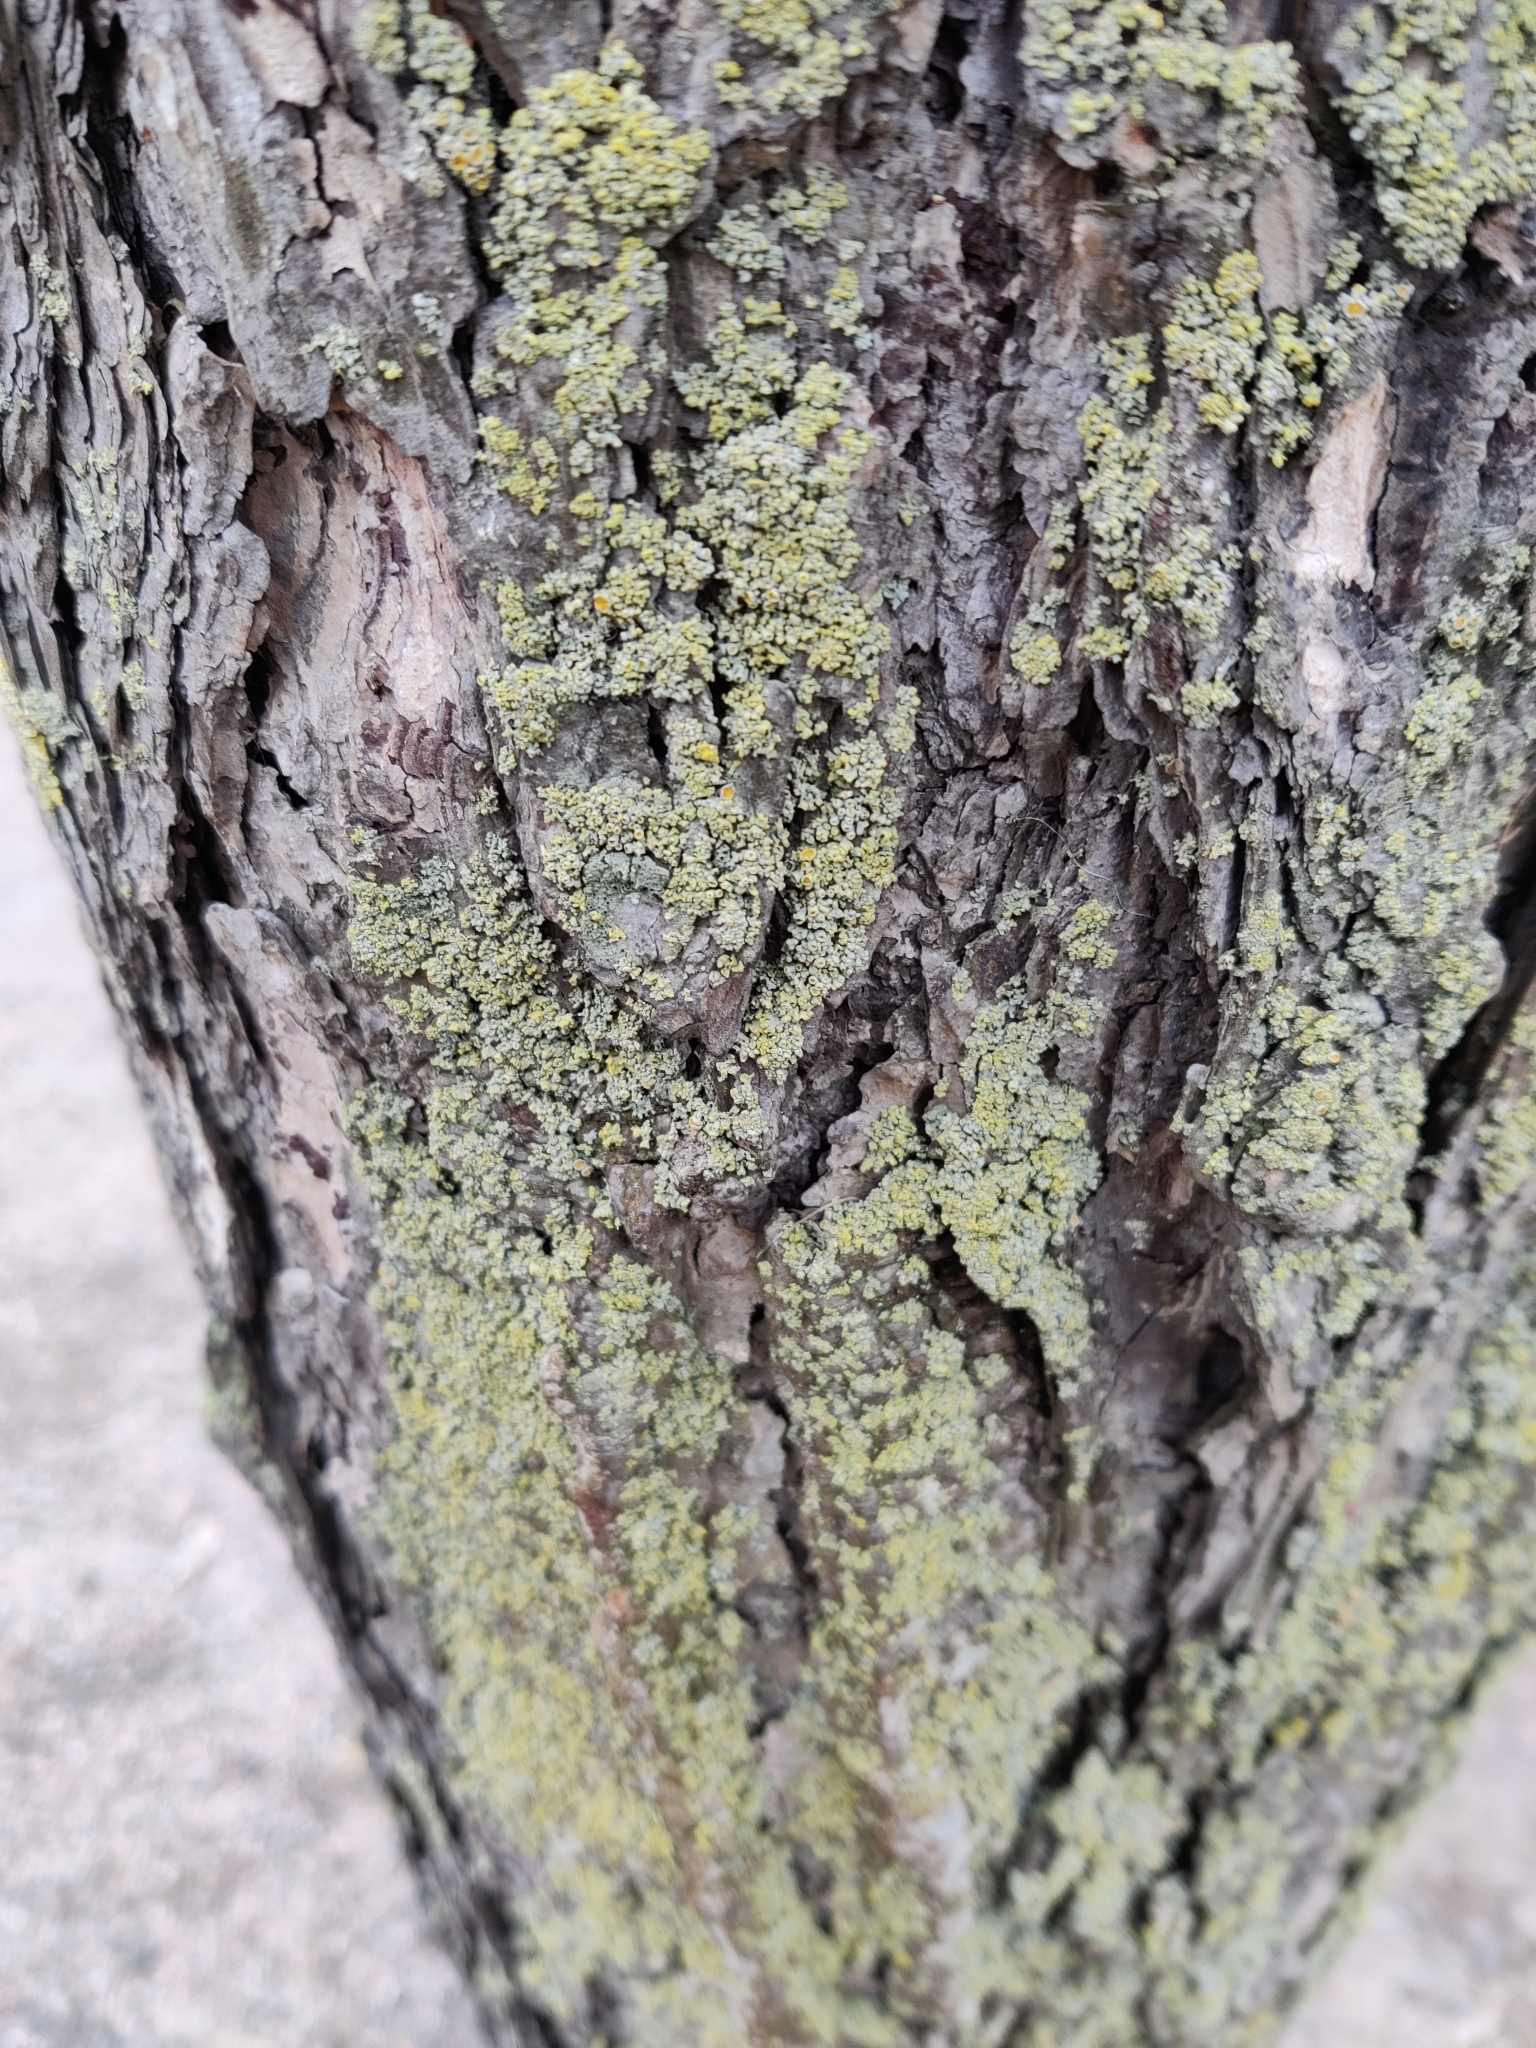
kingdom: Fungi
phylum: Ascomycota
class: Lecanoromycetes
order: Teloschistales
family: Teloschistaceae
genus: Polycauliona
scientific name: Polycauliona polycarpa
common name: Pin-cushion sunburst lichen
